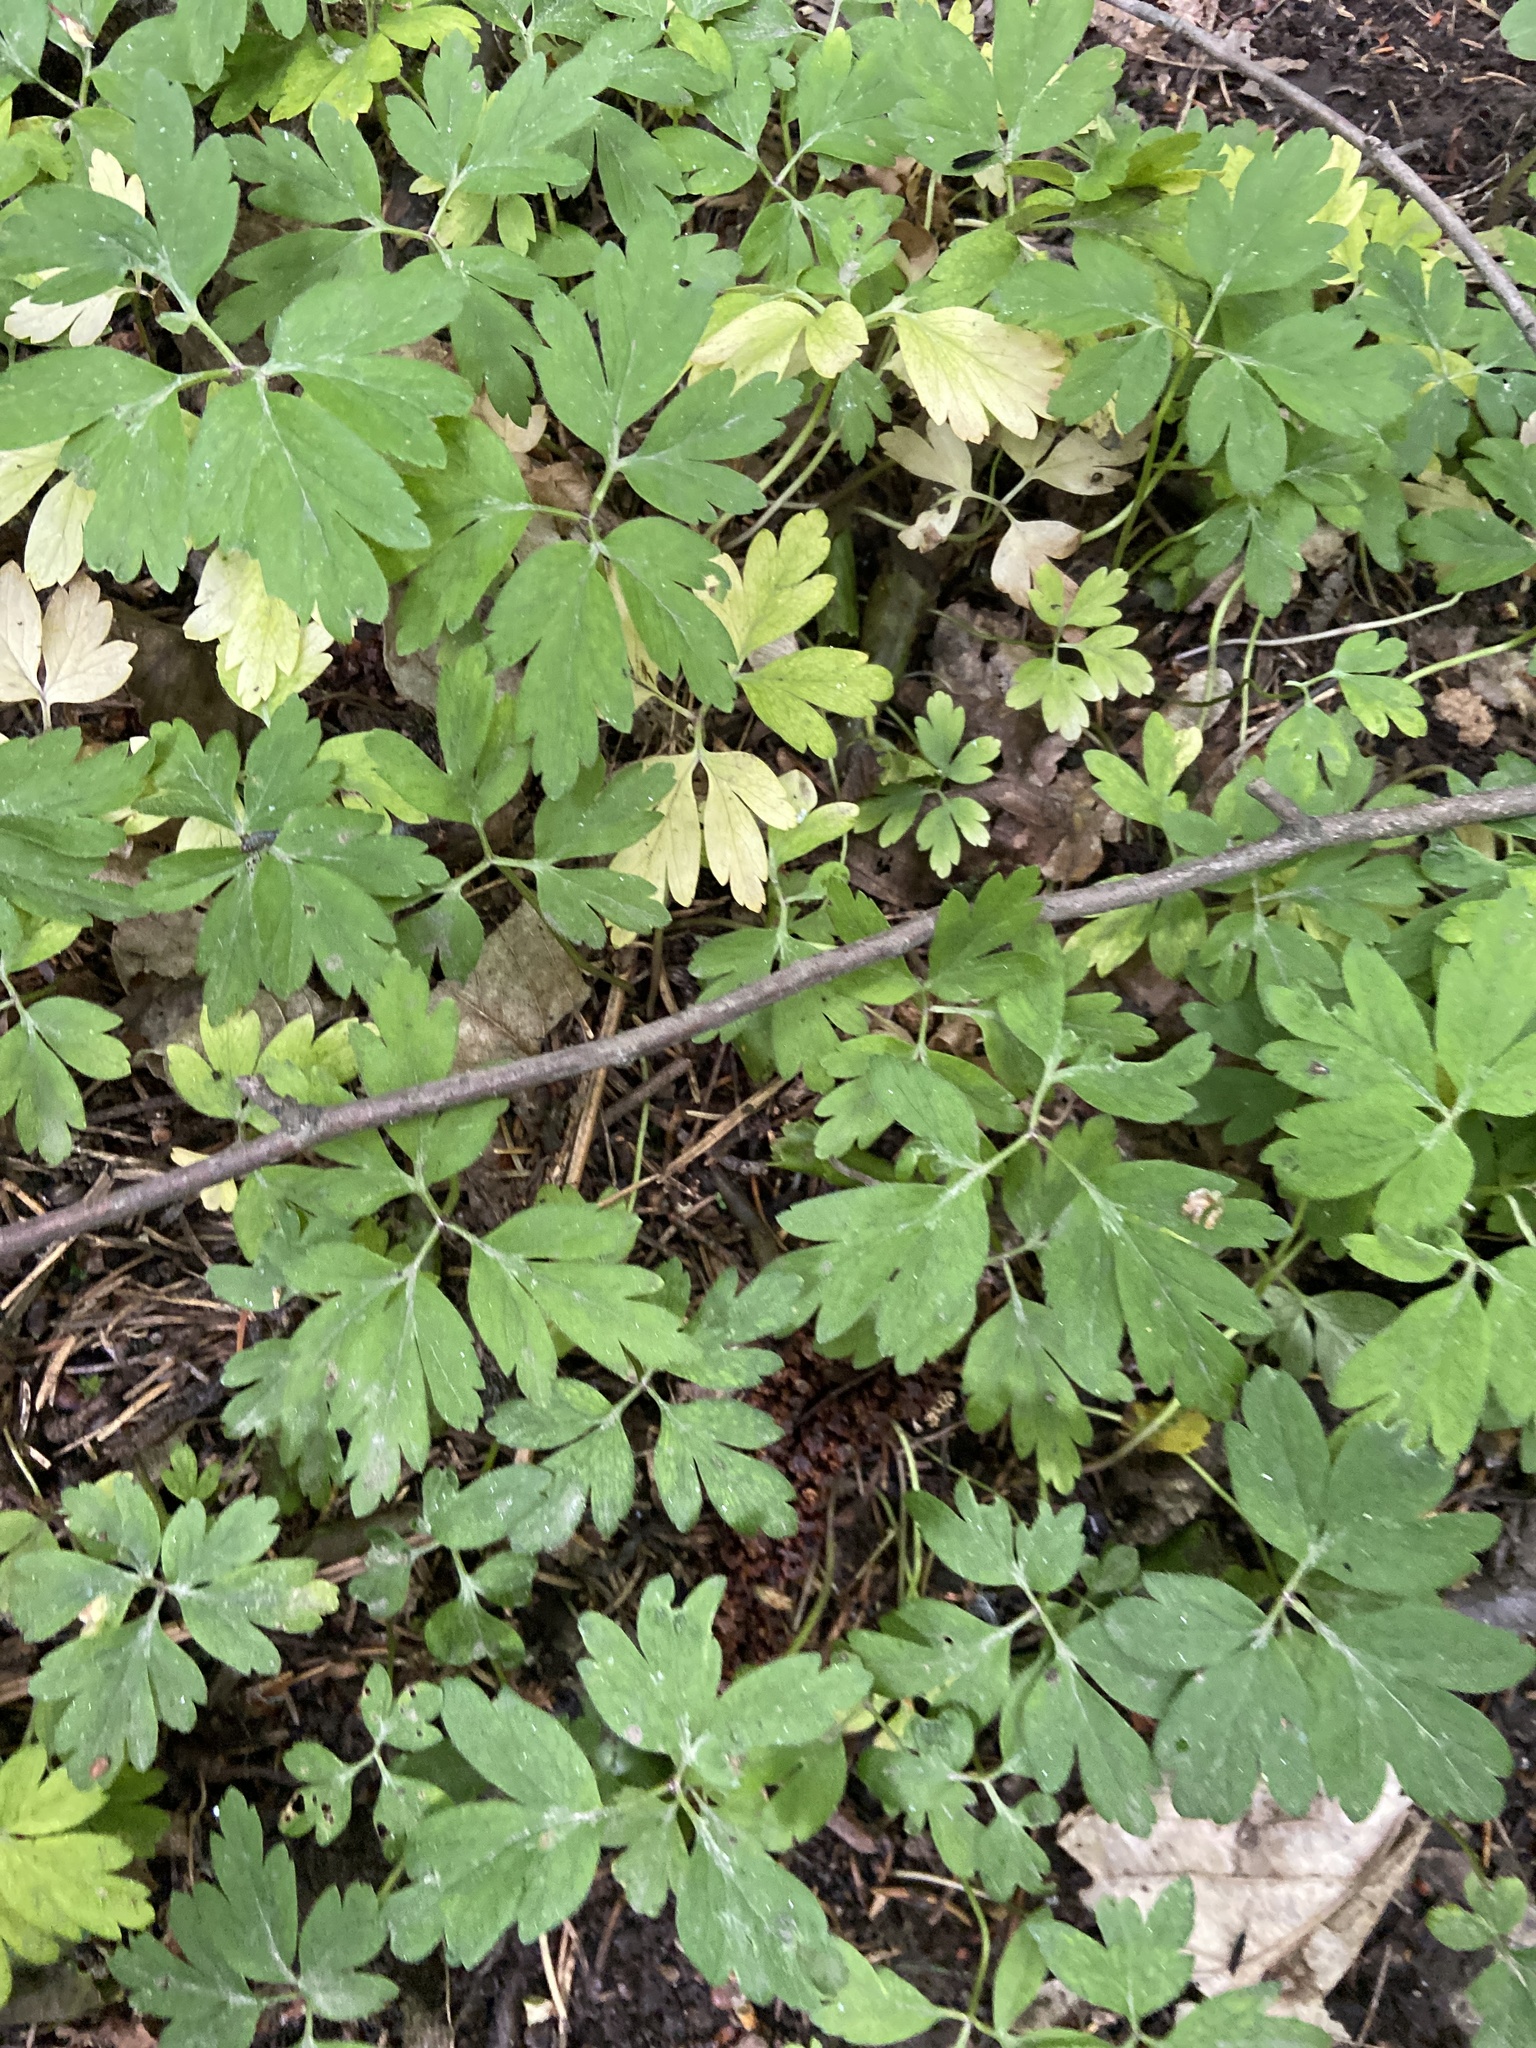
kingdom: Plantae
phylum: Tracheophyta
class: Magnoliopsida
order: Dipsacales
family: Viburnaceae
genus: Adoxa
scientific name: Adoxa moschatellina
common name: Moschatel
